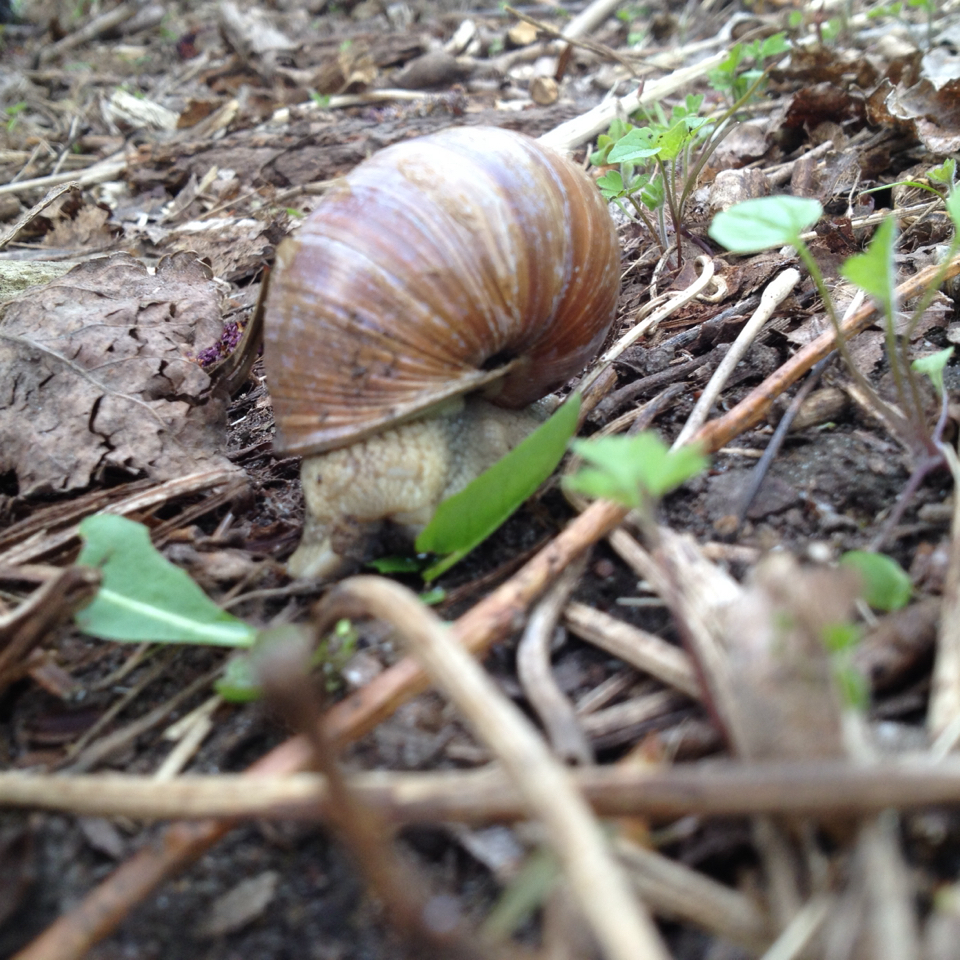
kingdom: Animalia
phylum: Mollusca
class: Gastropoda
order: Stylommatophora
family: Helicidae
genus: Helix
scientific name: Helix pomatia
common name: Roman snail
